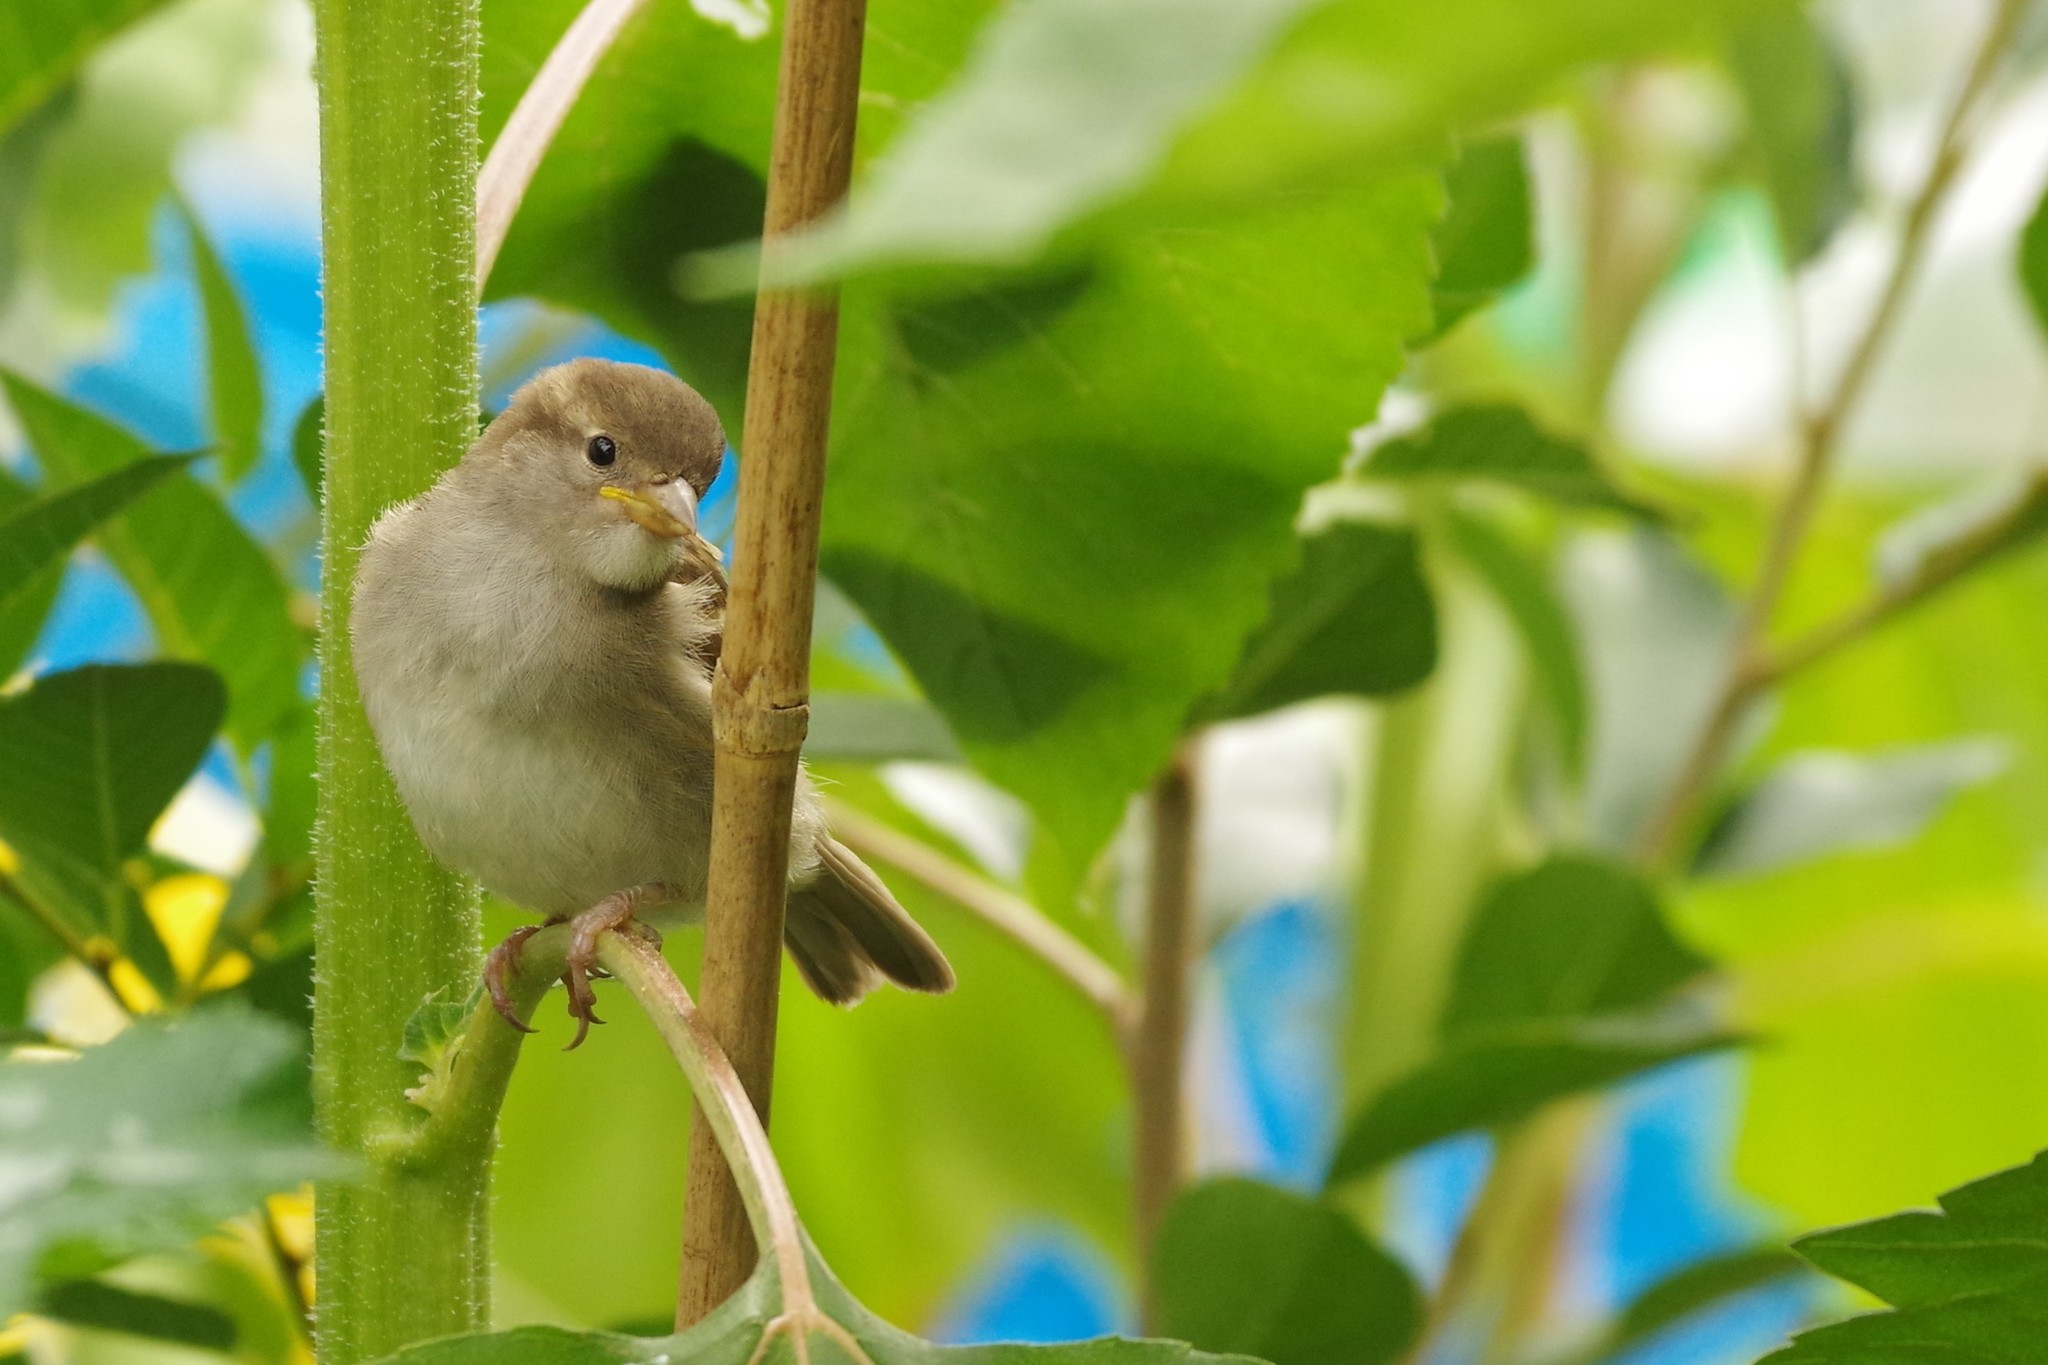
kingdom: Animalia
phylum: Chordata
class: Aves
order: Passeriformes
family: Passeridae
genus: Passer
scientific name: Passer domesticus
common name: House sparrow
